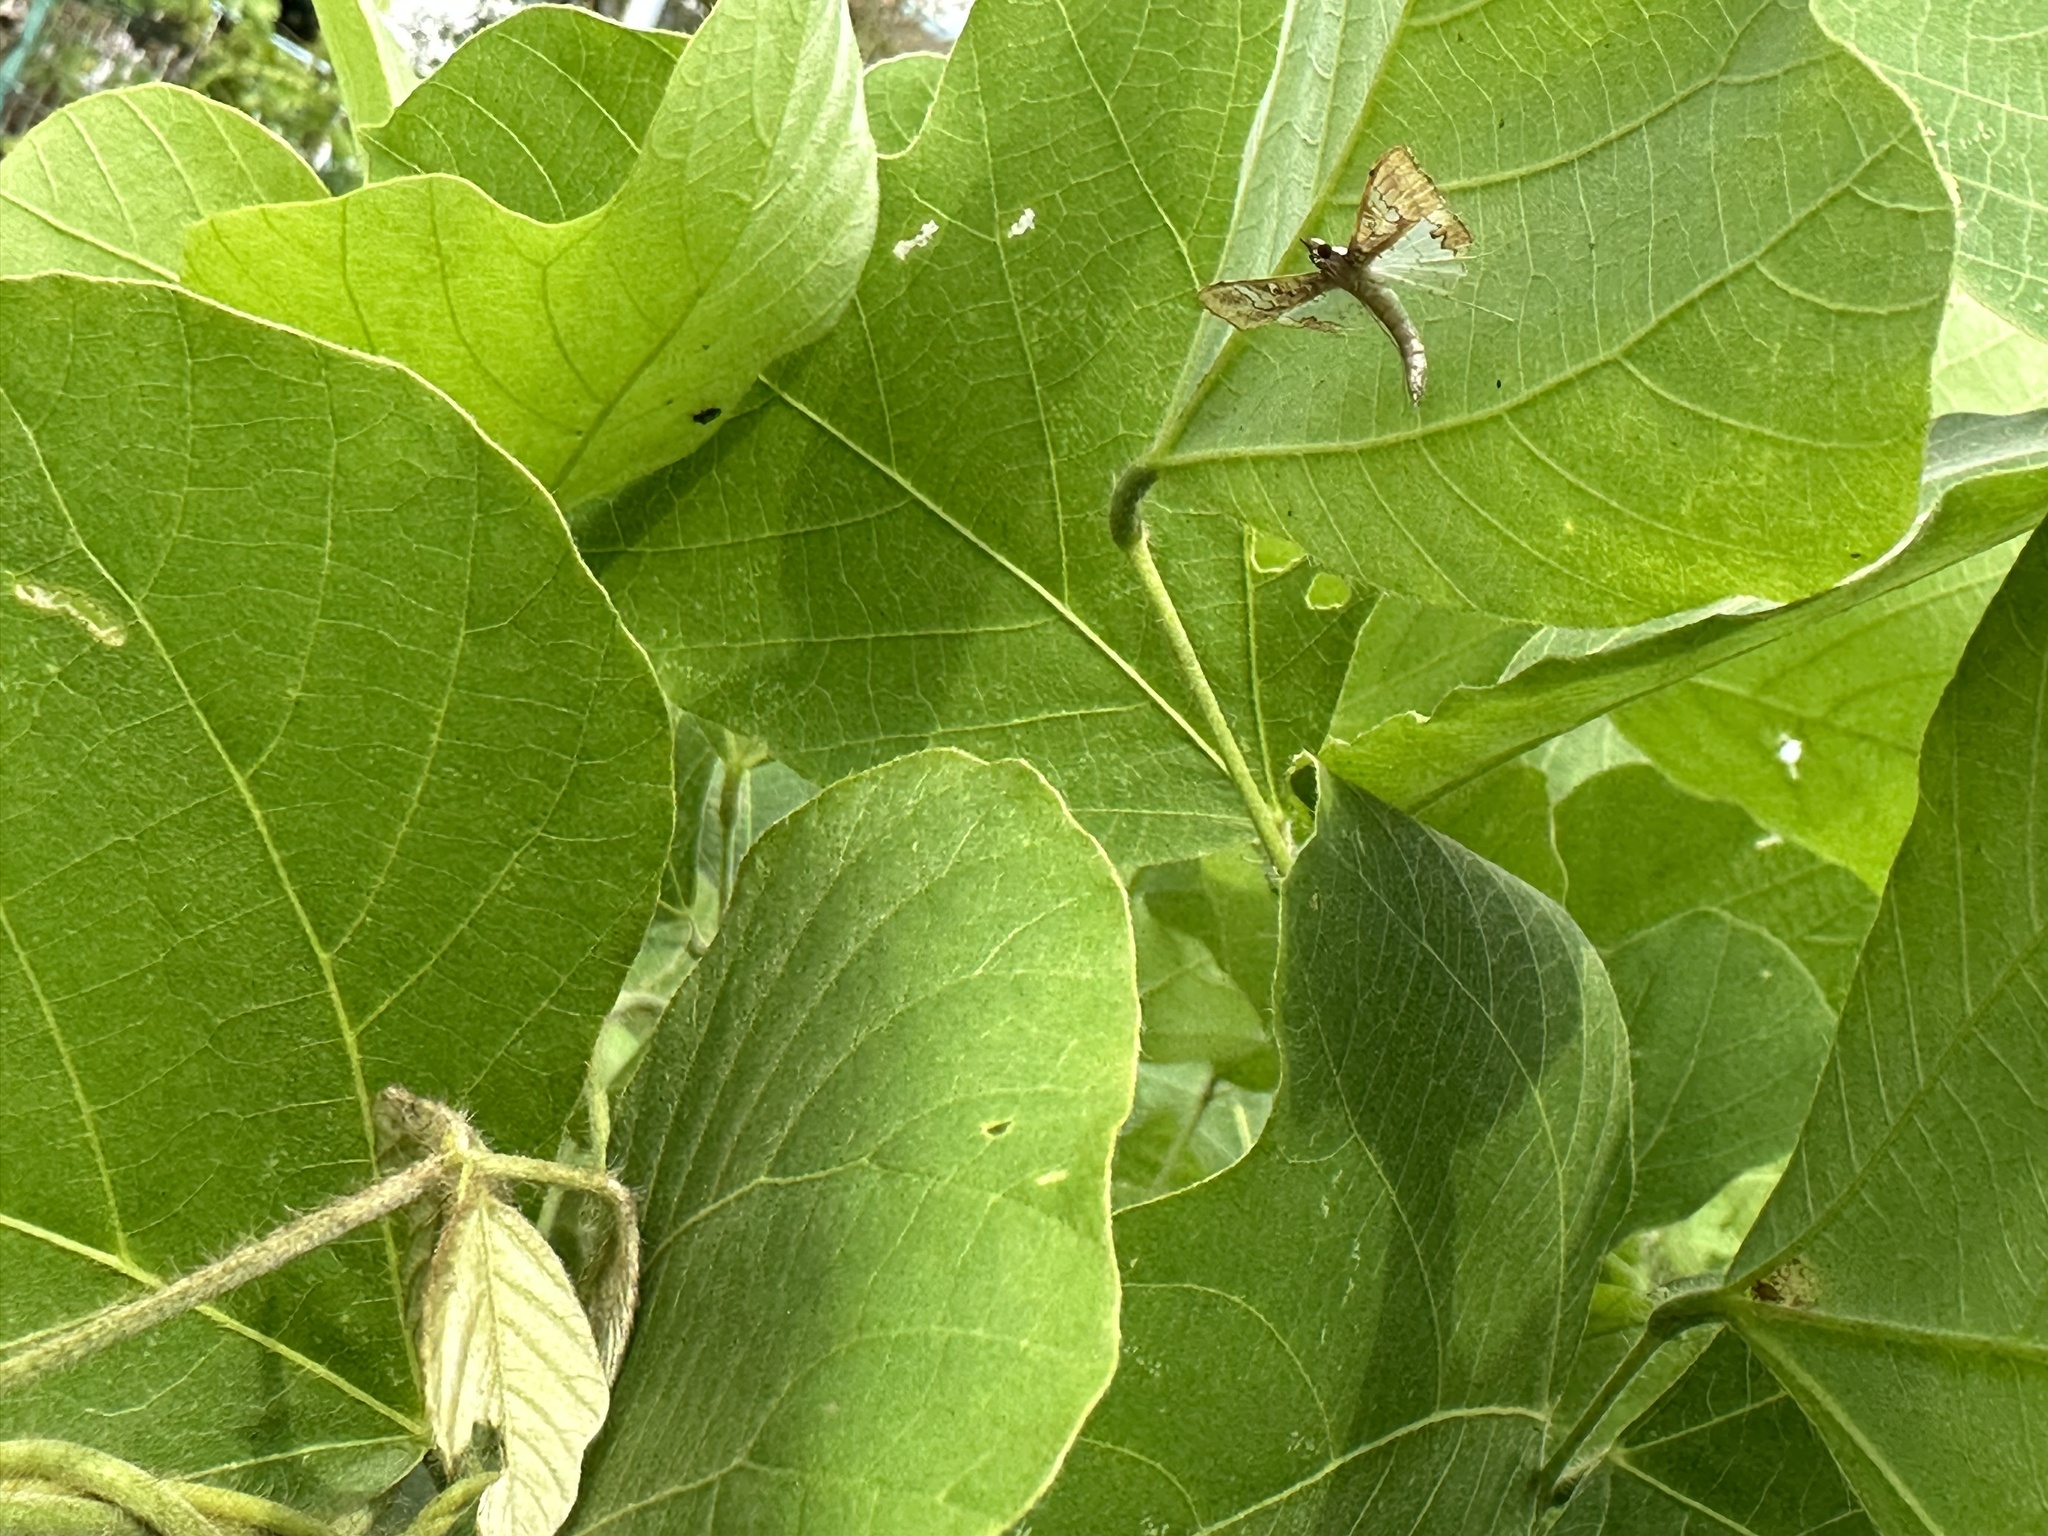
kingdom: Animalia
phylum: Arthropoda
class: Insecta
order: Lepidoptera
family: Crambidae
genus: Maruca
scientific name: Maruca vitrata
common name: Maruca pod borer
